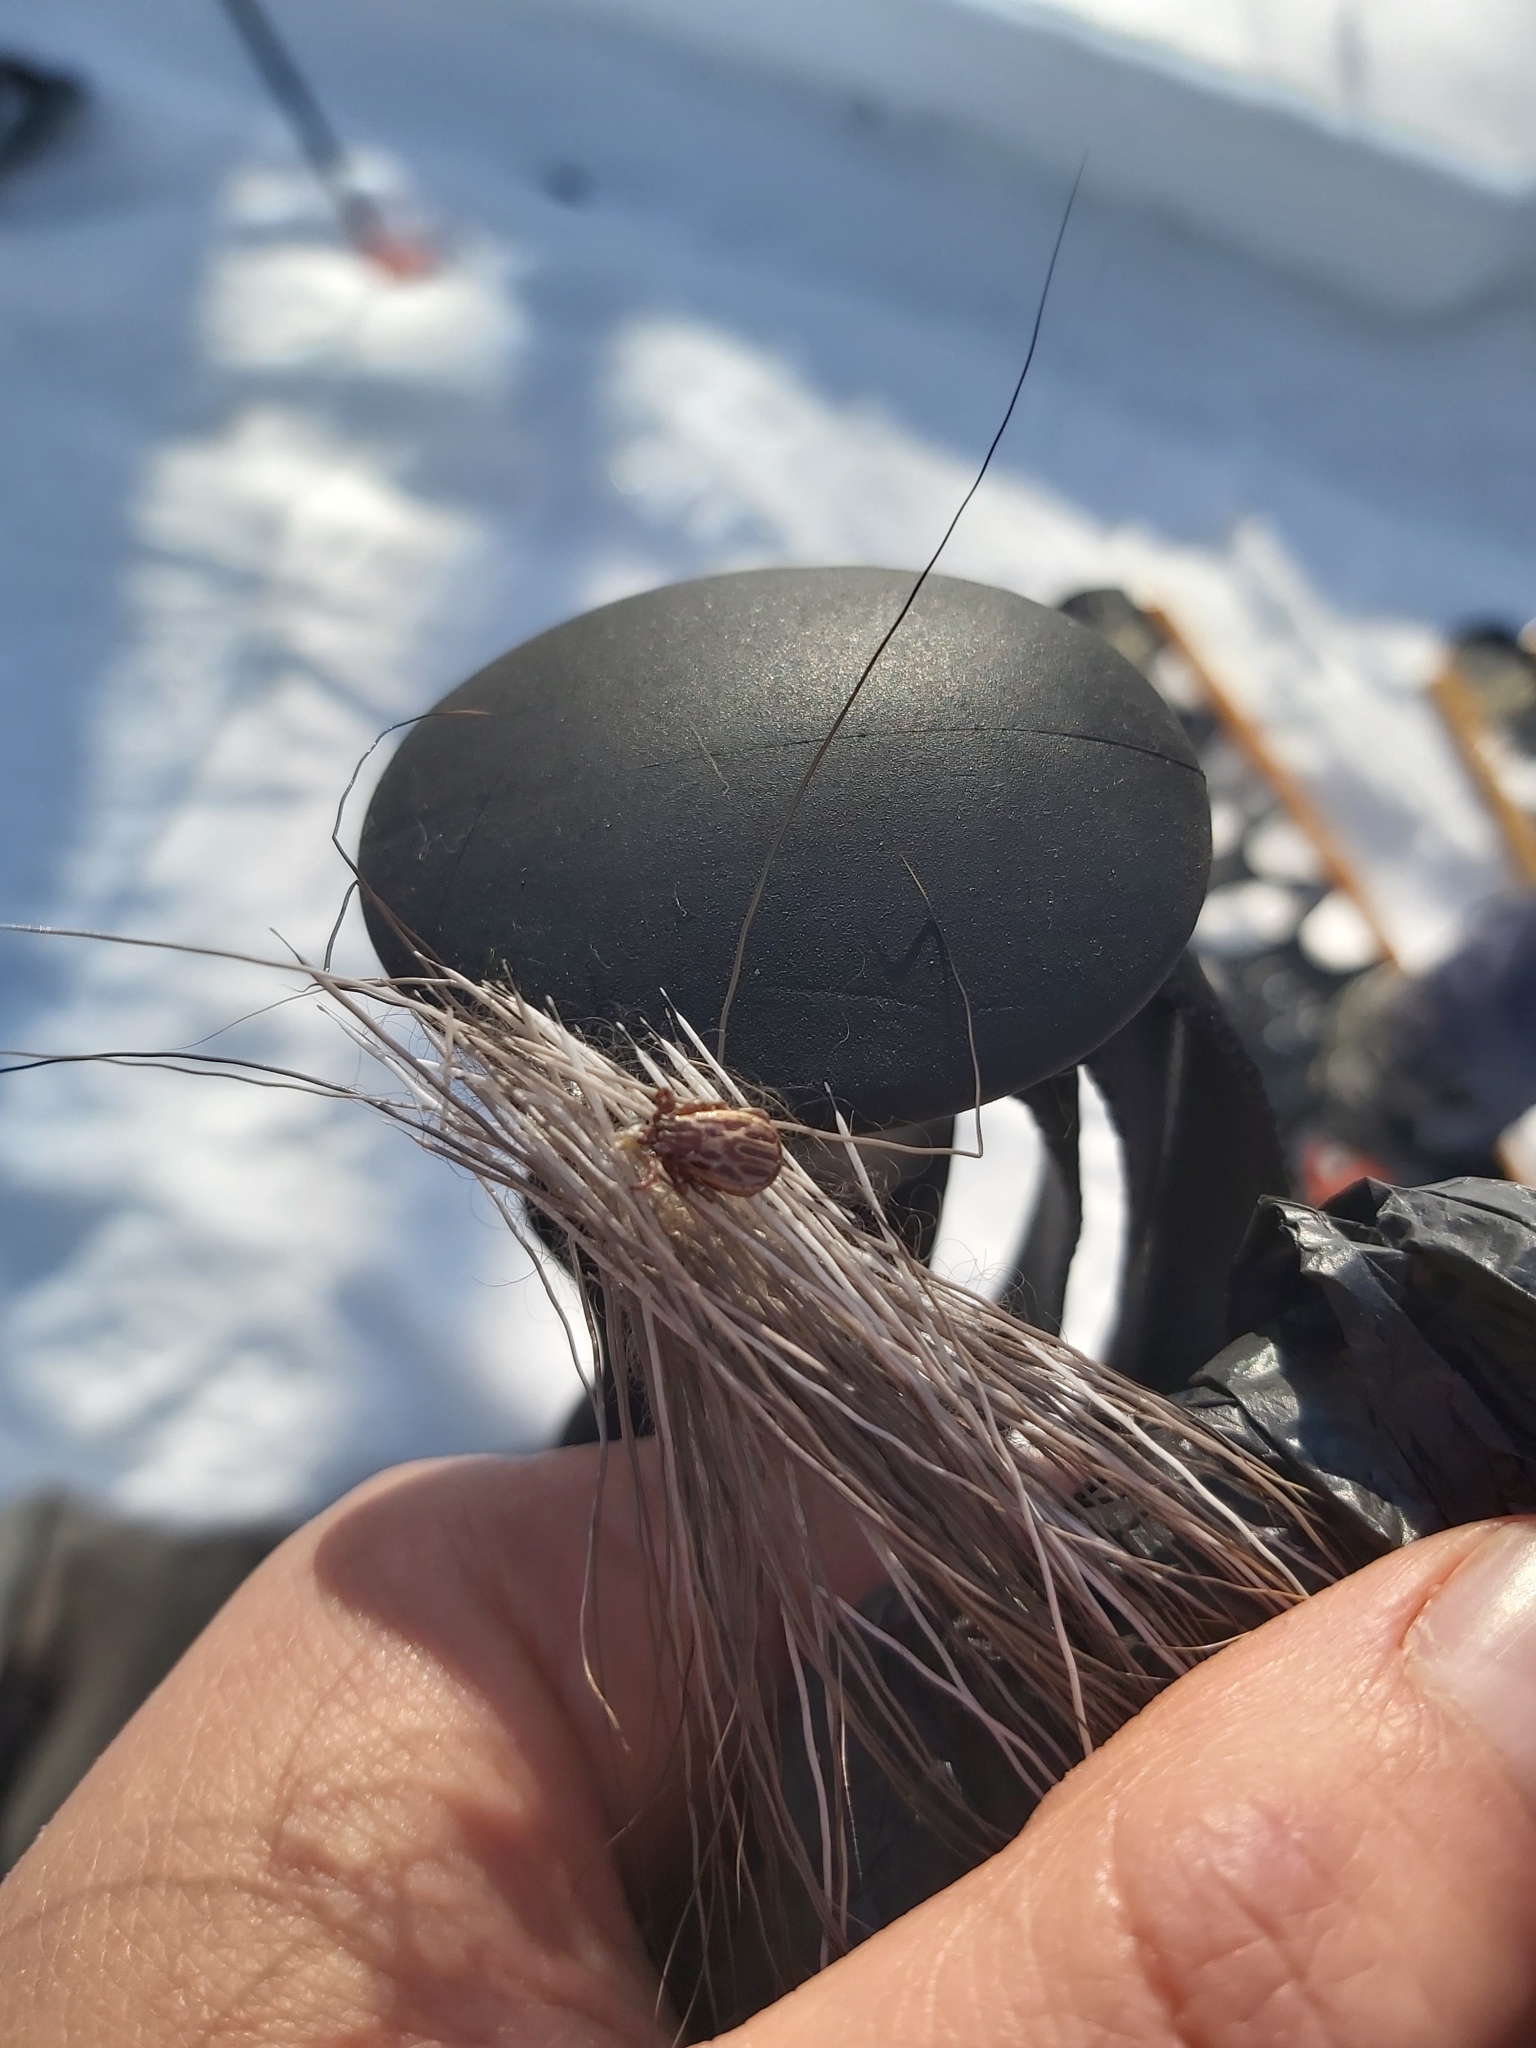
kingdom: Animalia
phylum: Arthropoda
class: Arachnida
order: Ixodida
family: Ixodidae
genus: Dermacentor
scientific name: Dermacentor andersoni
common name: Rocky mountain wood tick
